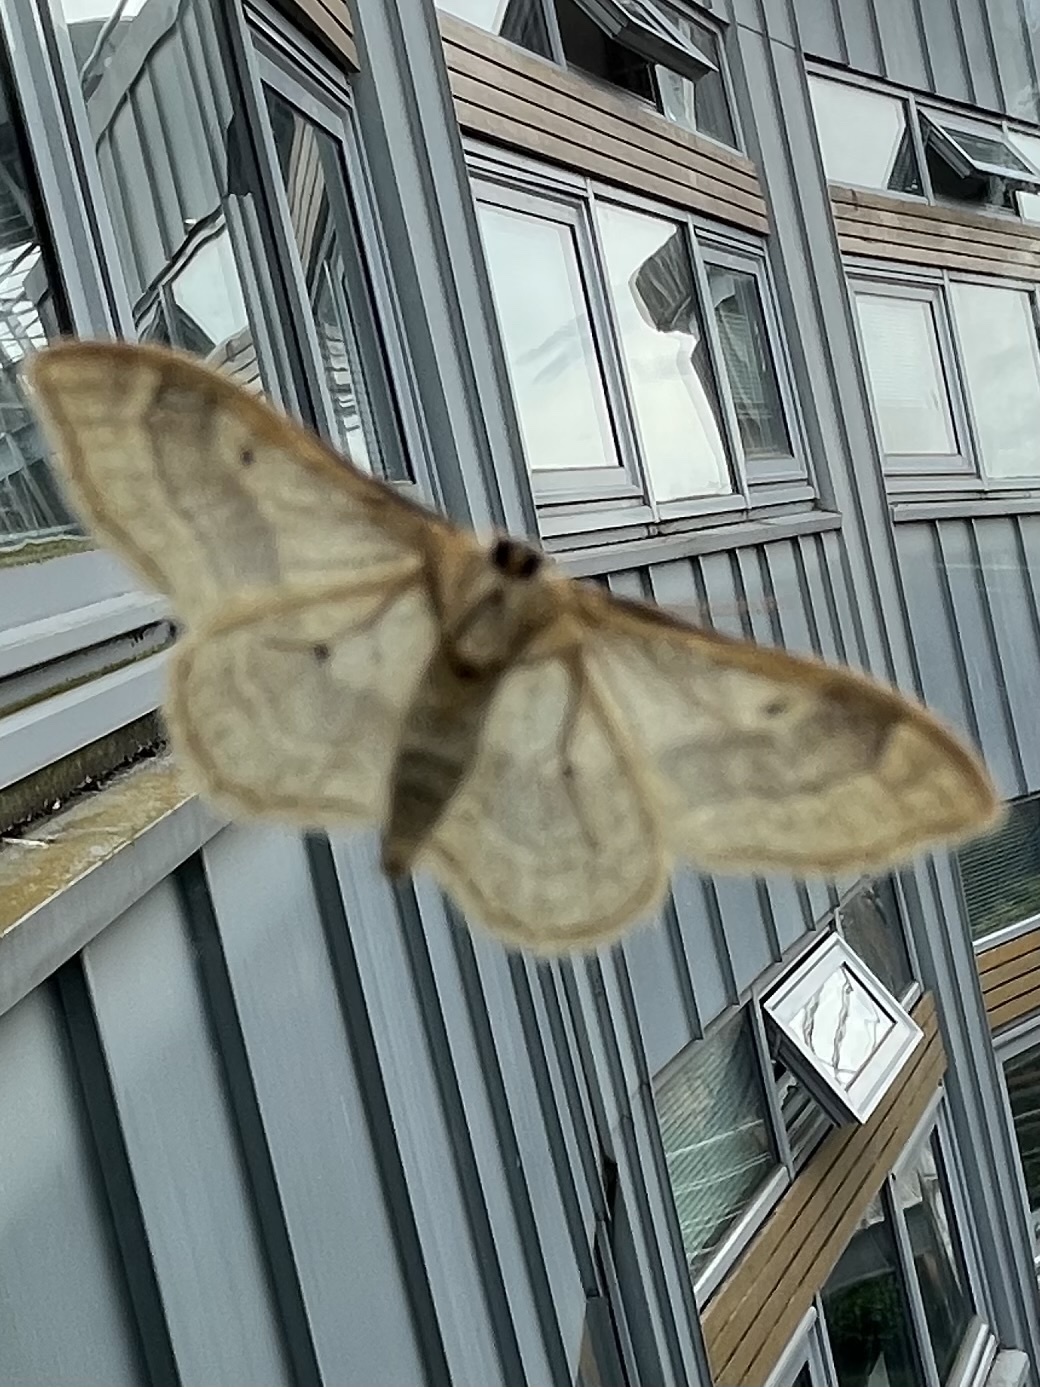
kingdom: Animalia
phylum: Arthropoda
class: Insecta
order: Lepidoptera
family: Geometridae
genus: Idaea
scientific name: Idaea aversata
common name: Riband wave
